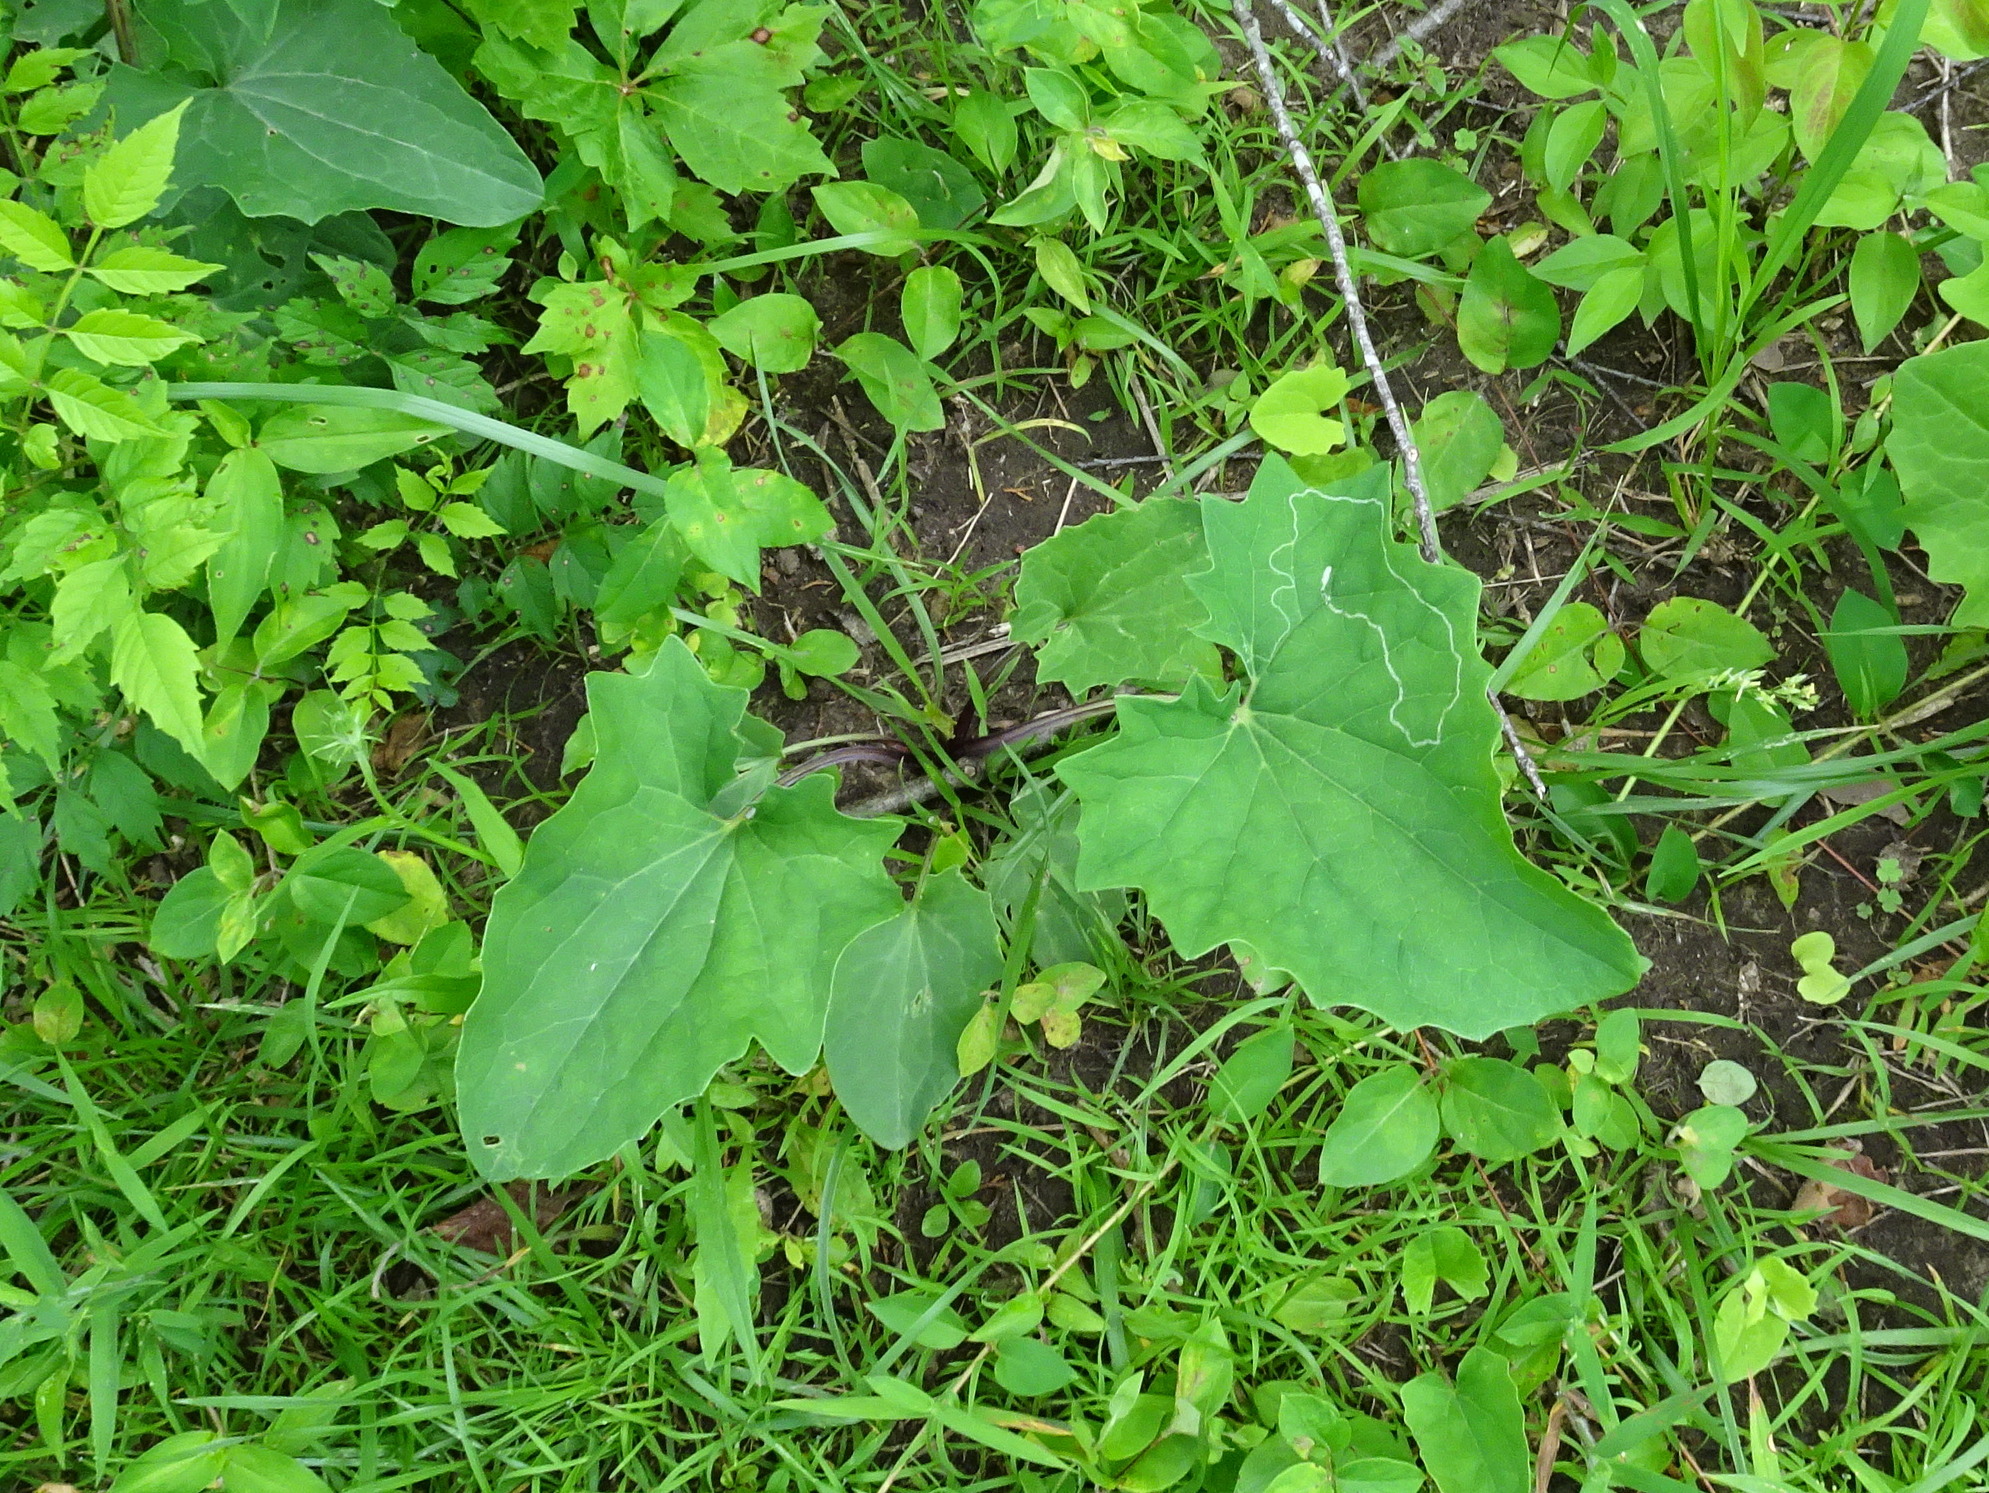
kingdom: Animalia
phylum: Arthropoda
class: Insecta
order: Lepidoptera
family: Gracillariidae
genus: Phyllocnistis
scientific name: Phyllocnistis insignis
